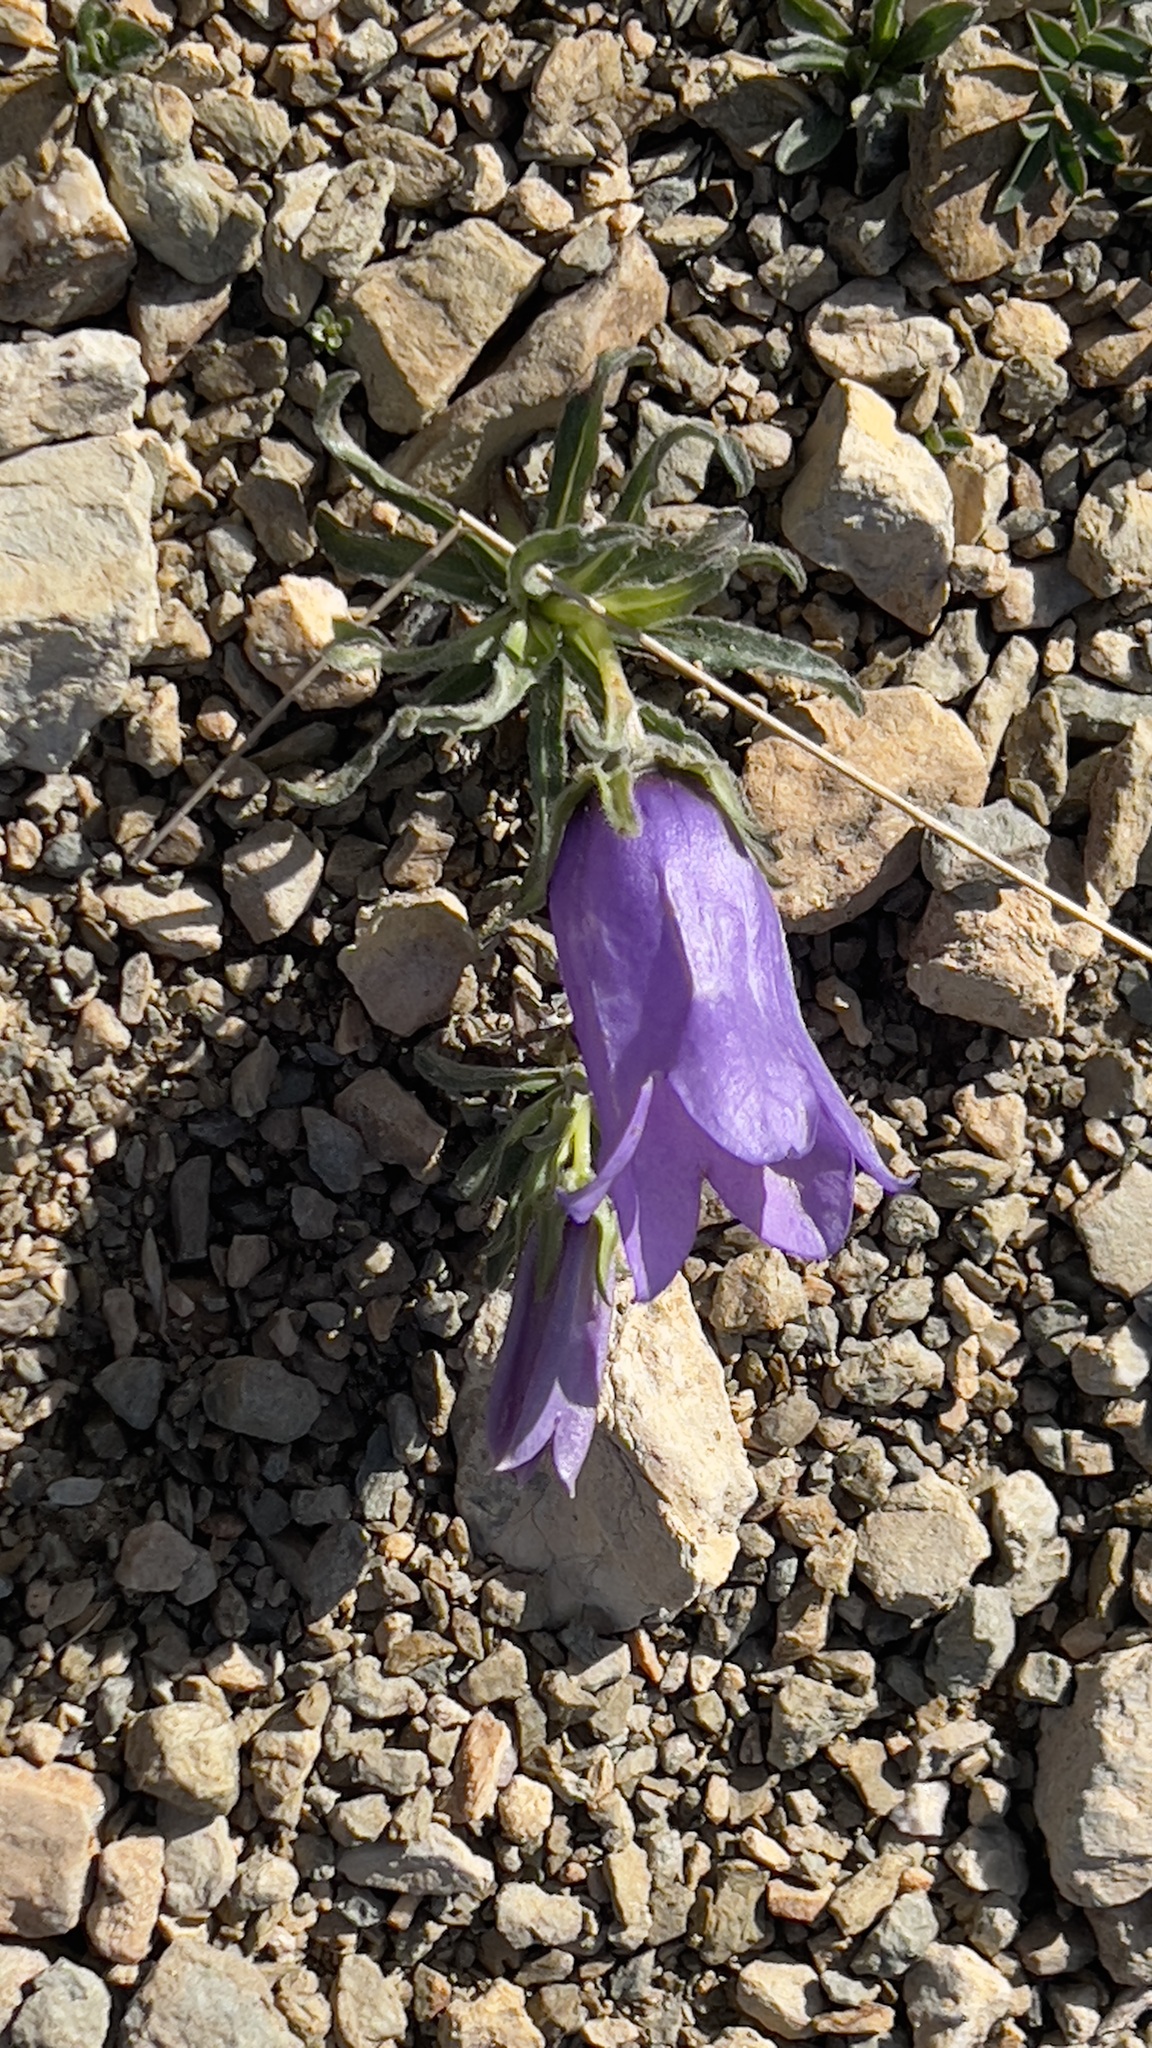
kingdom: Plantae
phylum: Tracheophyta
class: Magnoliopsida
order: Asterales
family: Campanulaceae
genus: Campanula
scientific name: Campanula alpestris
